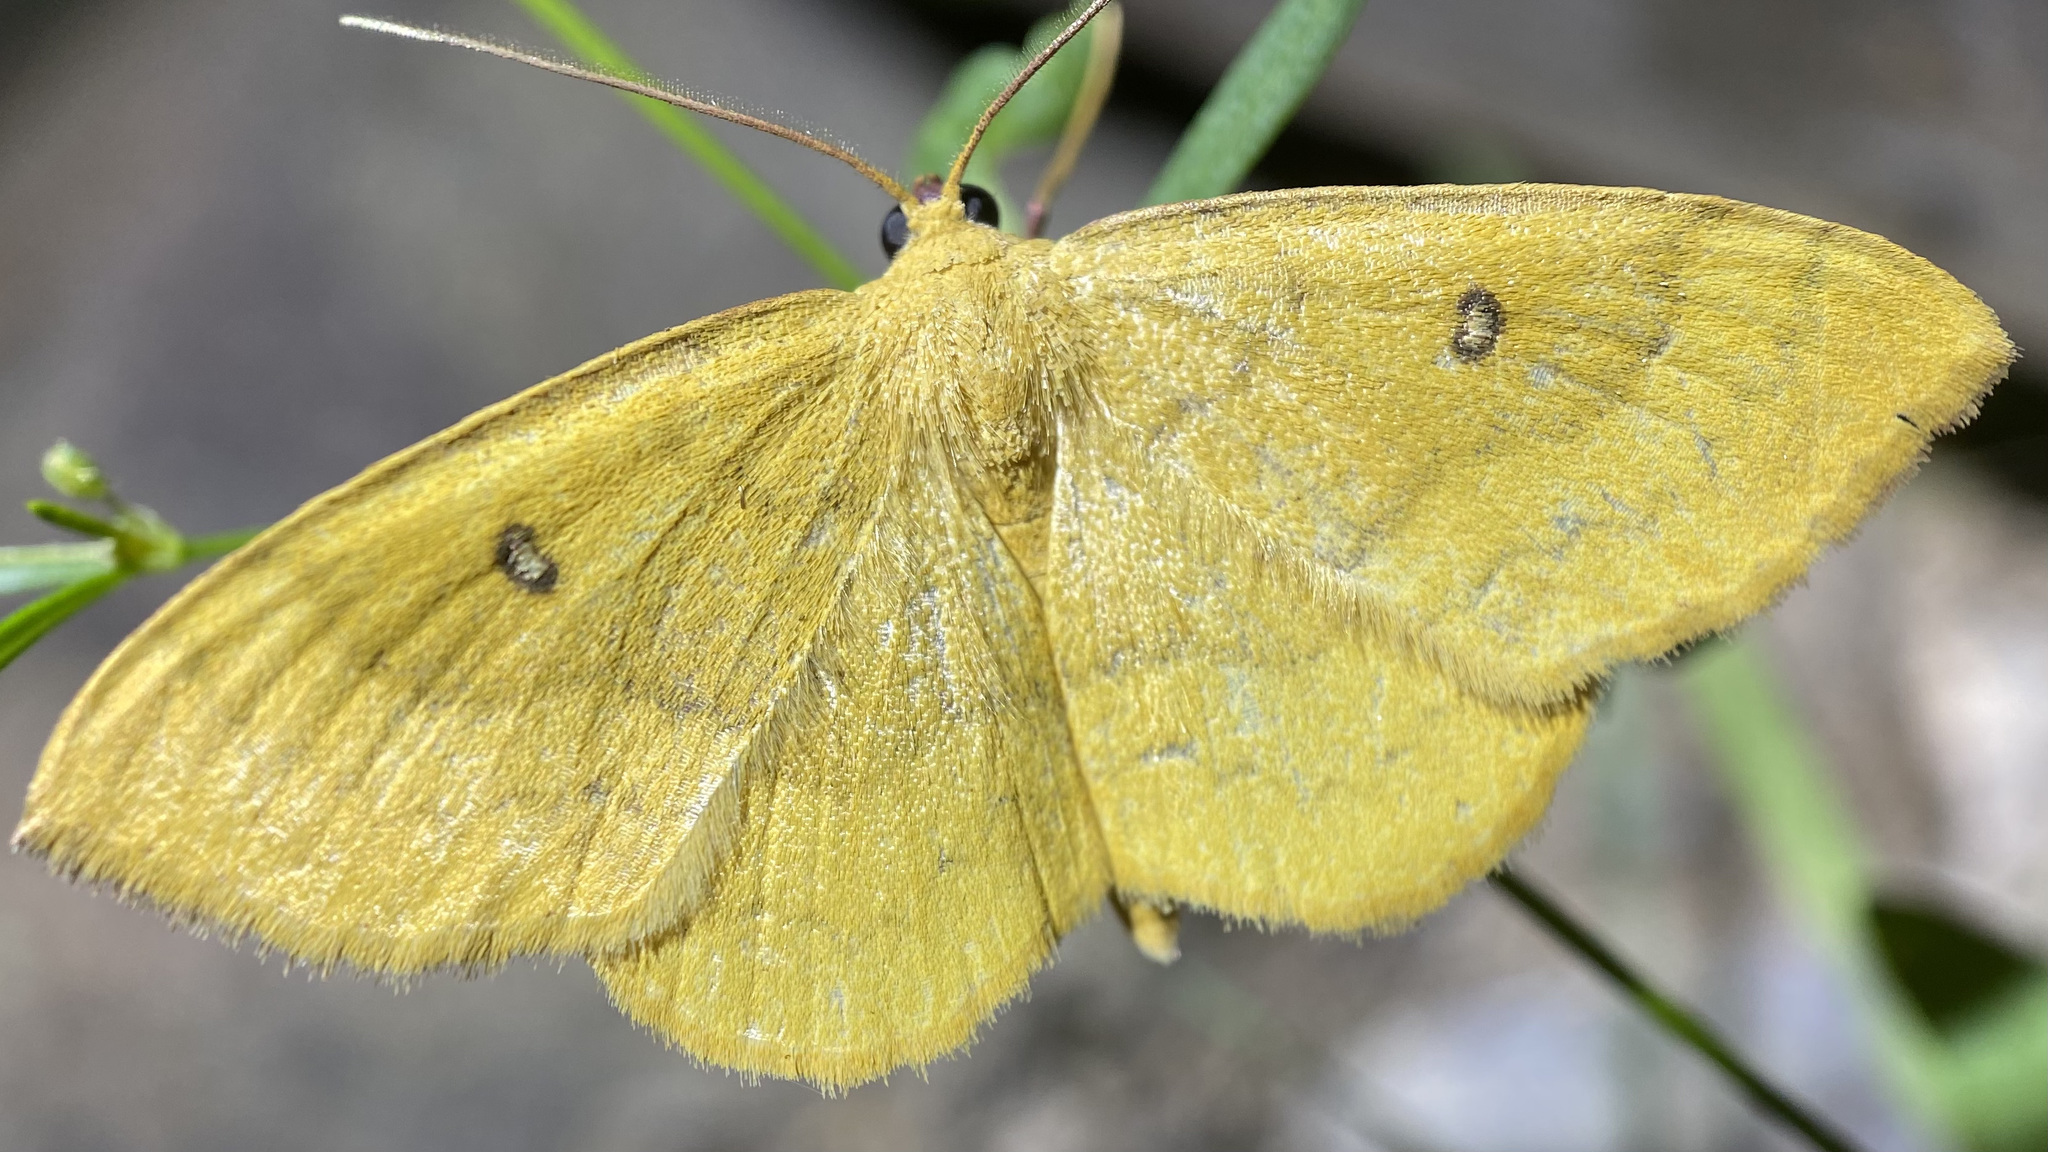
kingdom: Animalia
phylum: Arthropoda
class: Insecta
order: Lepidoptera
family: Geometridae
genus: Semaeopus
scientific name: Semaeopus ella
